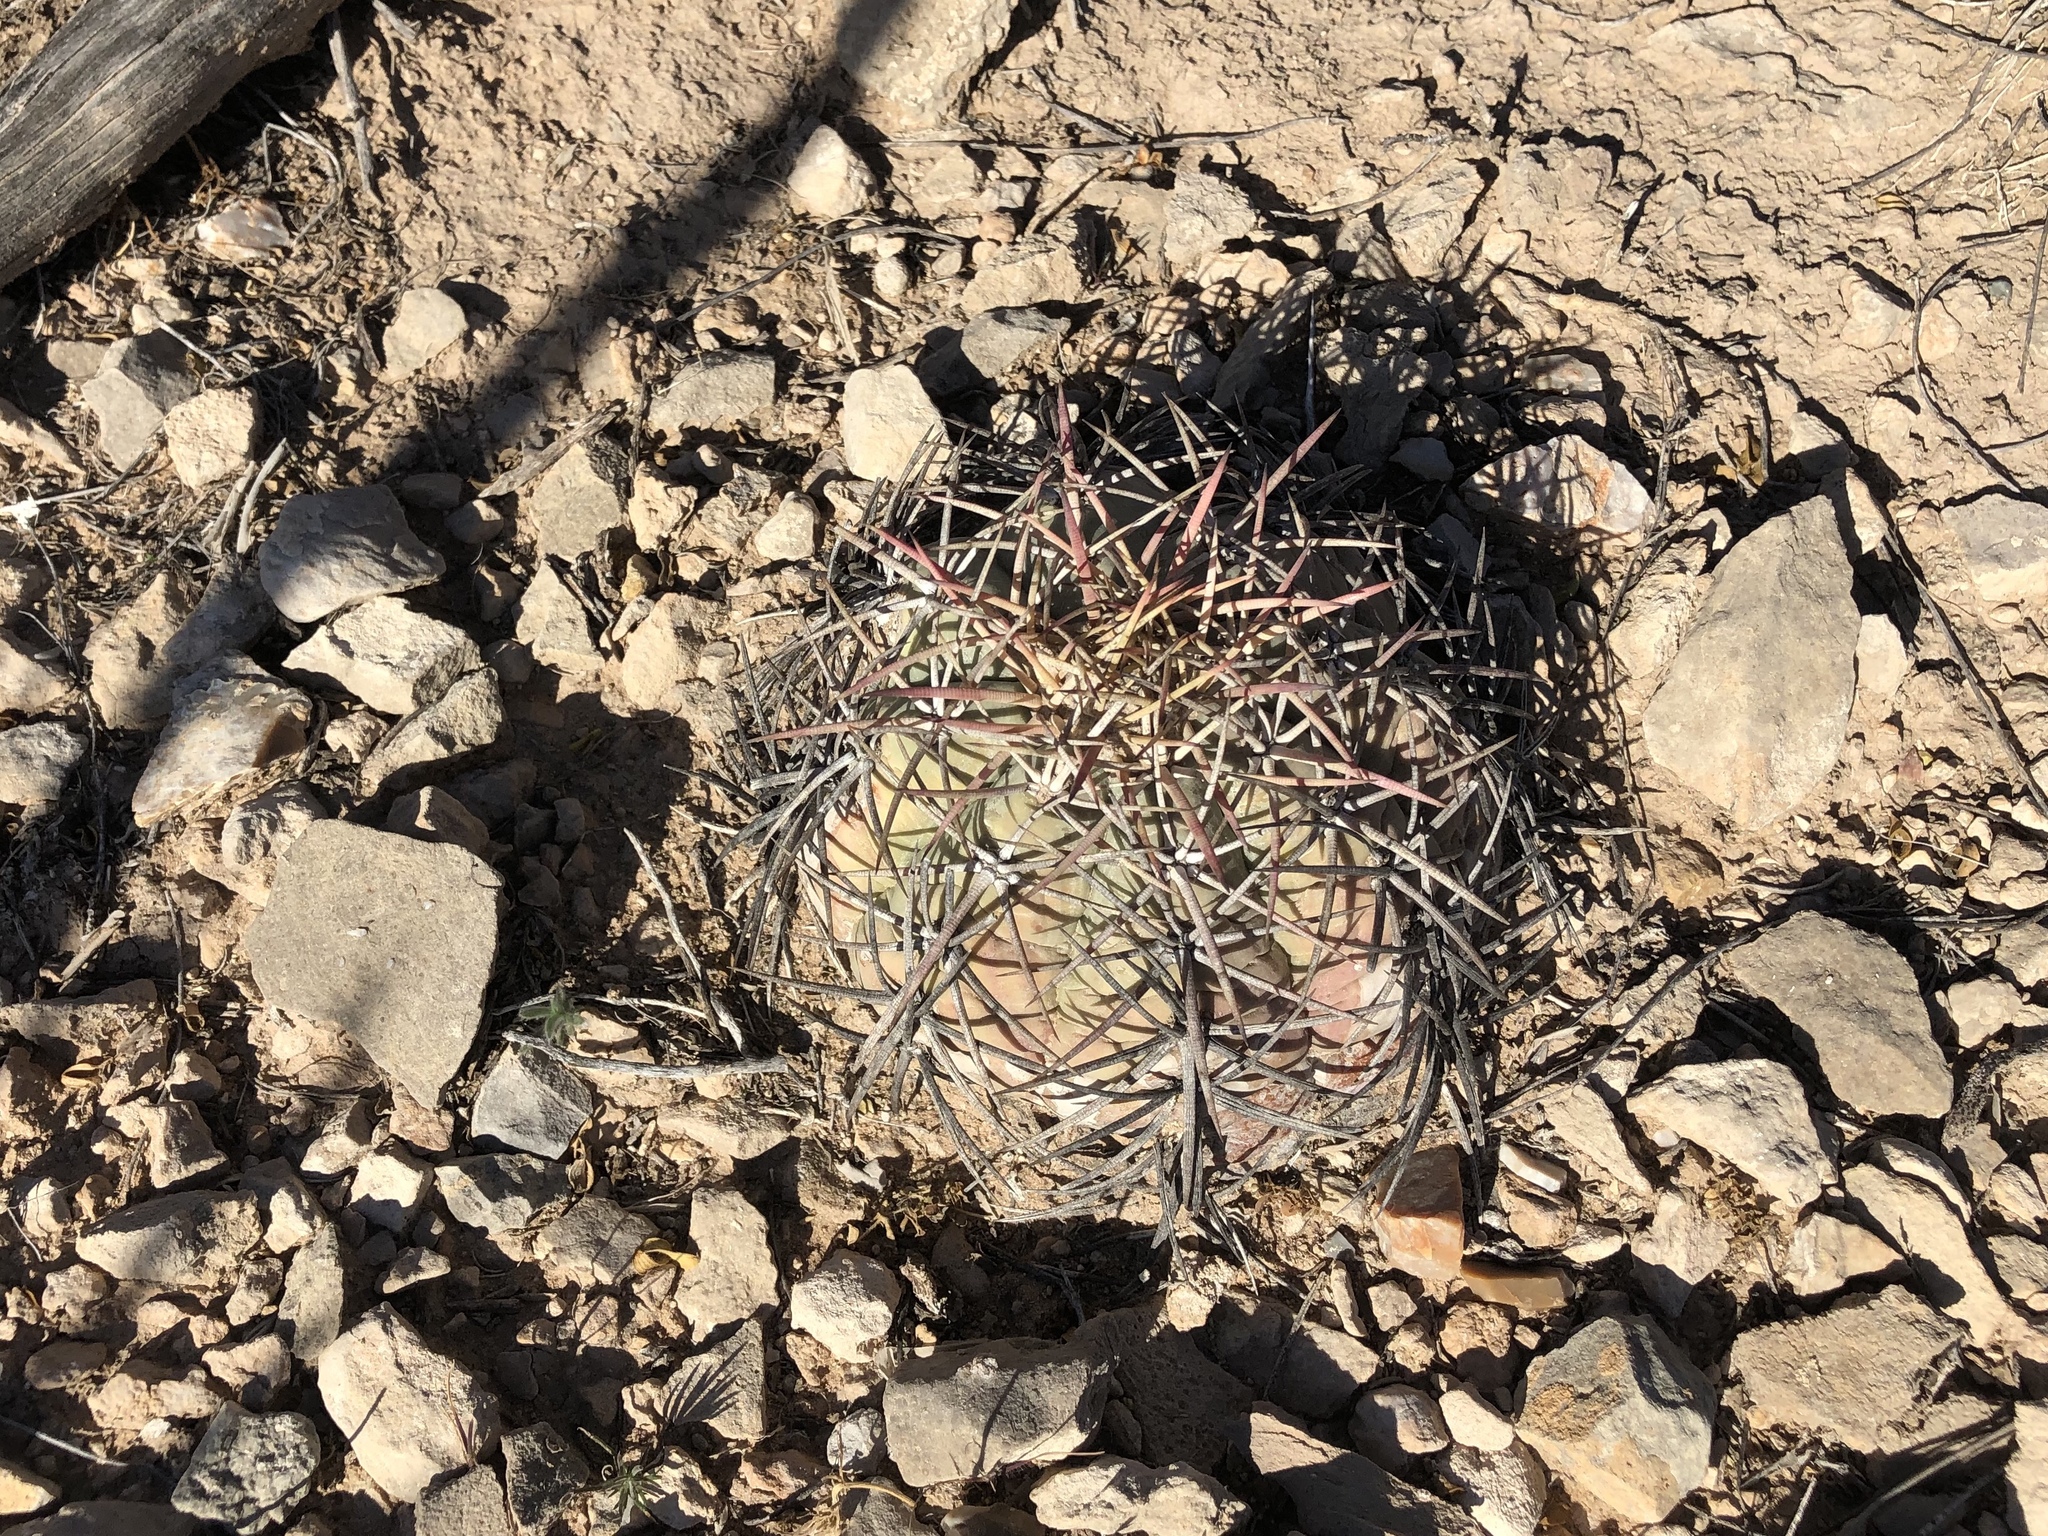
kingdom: Plantae
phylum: Tracheophyta
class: Magnoliopsida
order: Caryophyllales
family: Cactaceae
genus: Echinocactus
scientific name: Echinocactus horizonthalonius
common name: Devilshead
